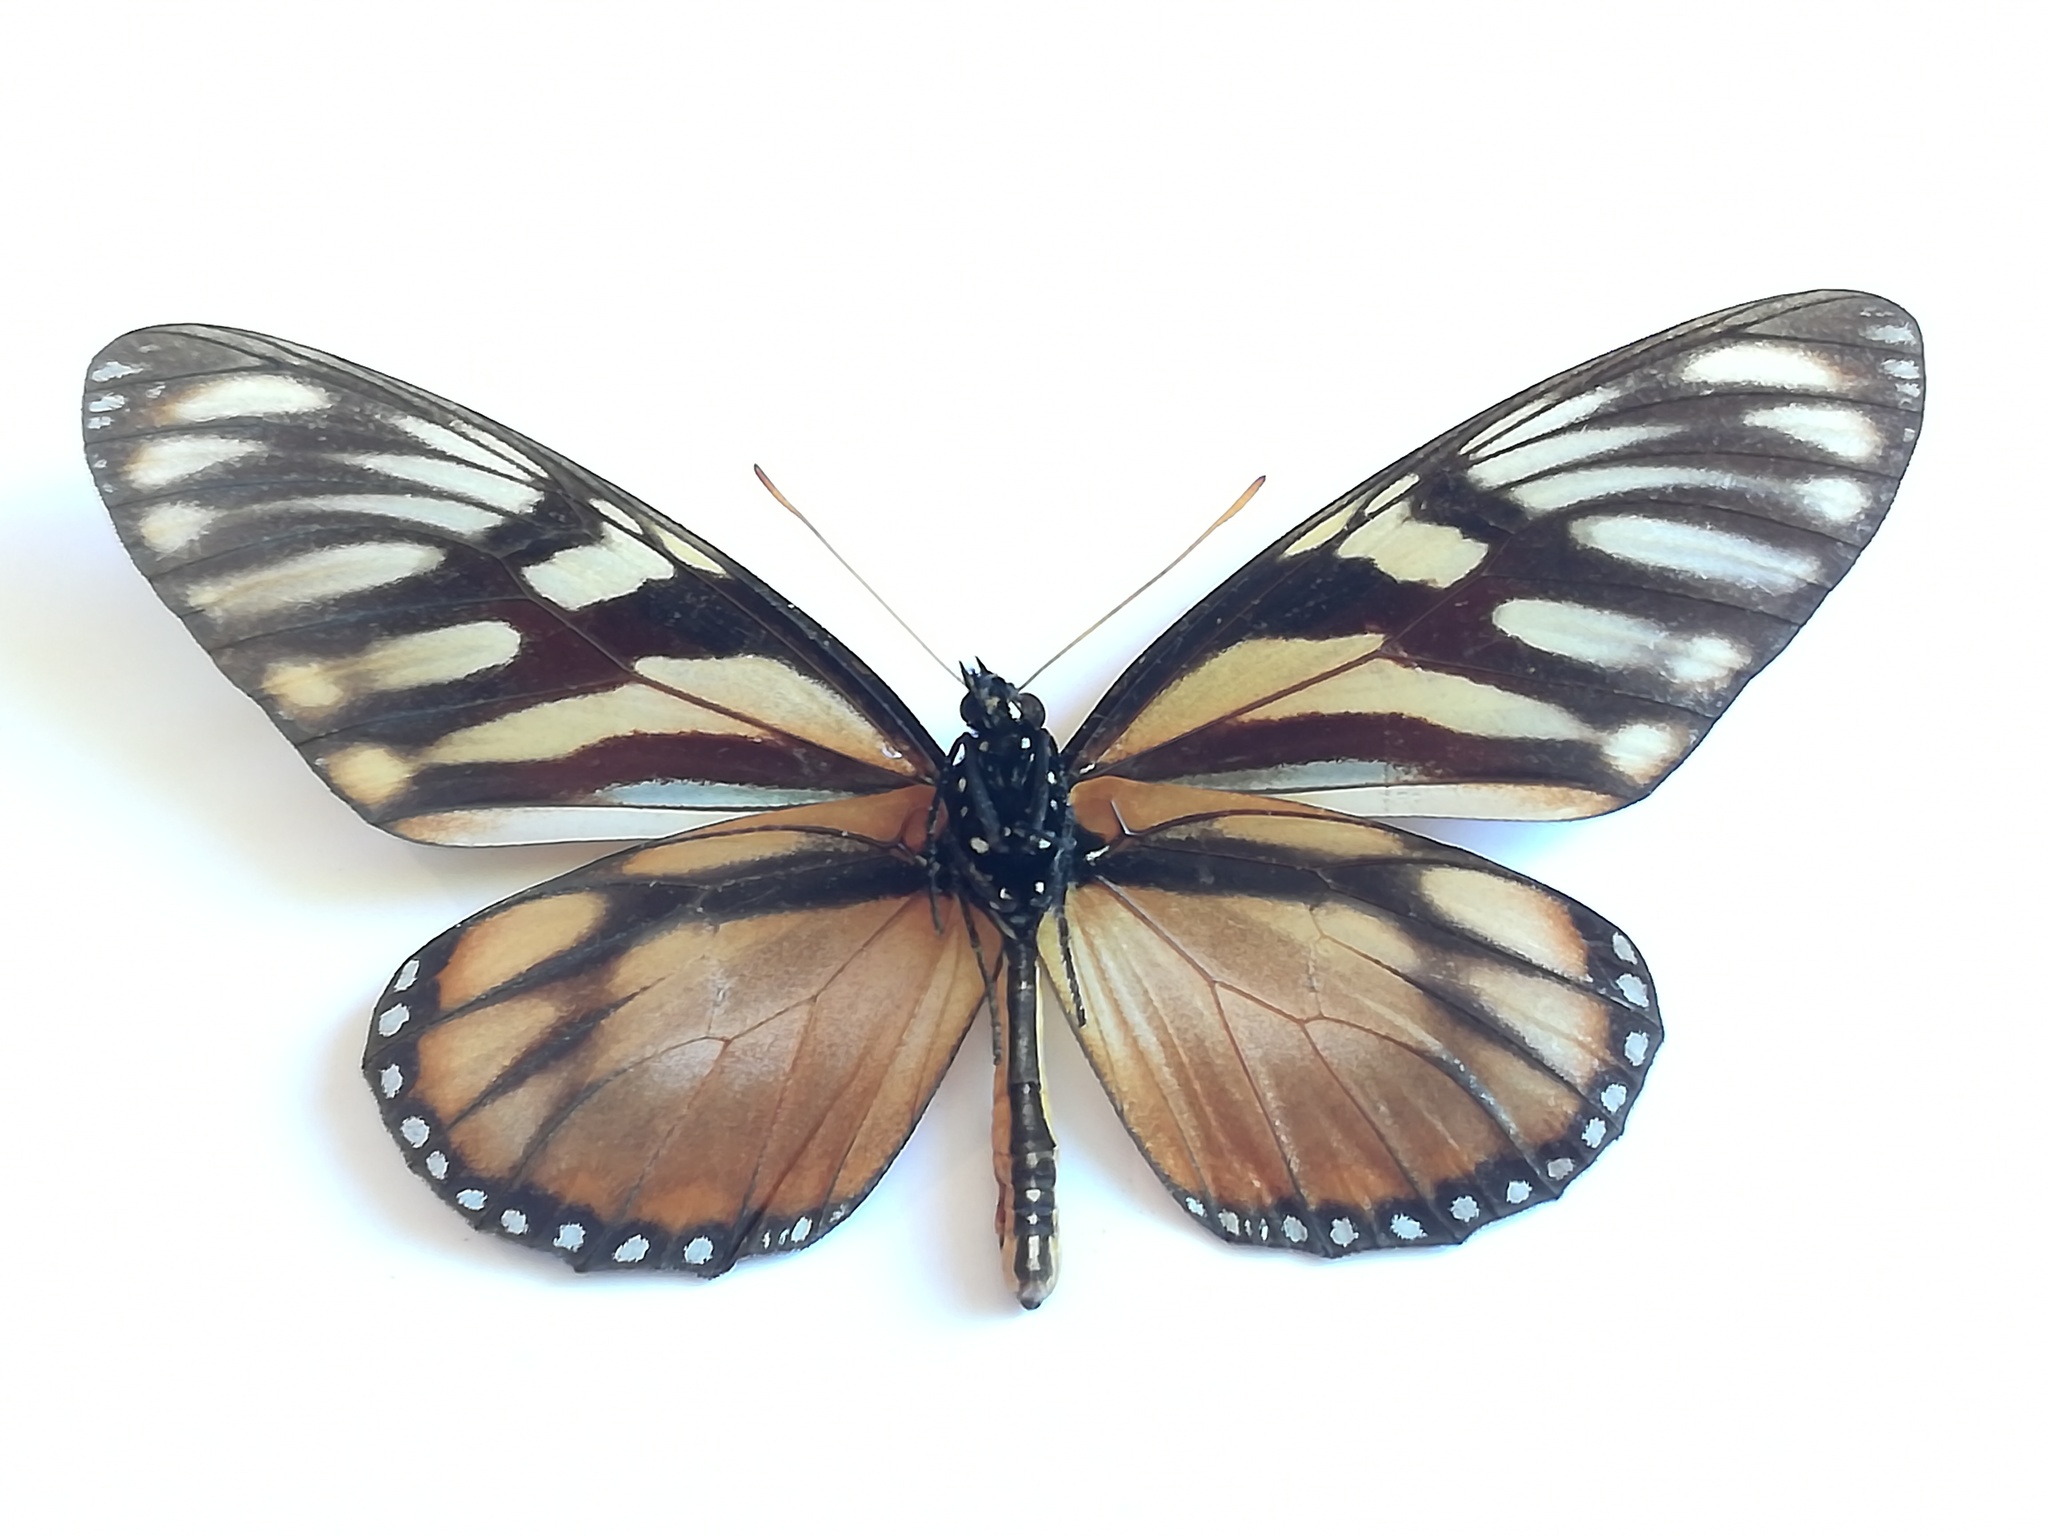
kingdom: Animalia
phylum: Arthropoda
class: Insecta
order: Lepidoptera
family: Nymphalidae
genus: Lycorea
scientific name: Lycorea ilione
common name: Clearwing mimic-queen
